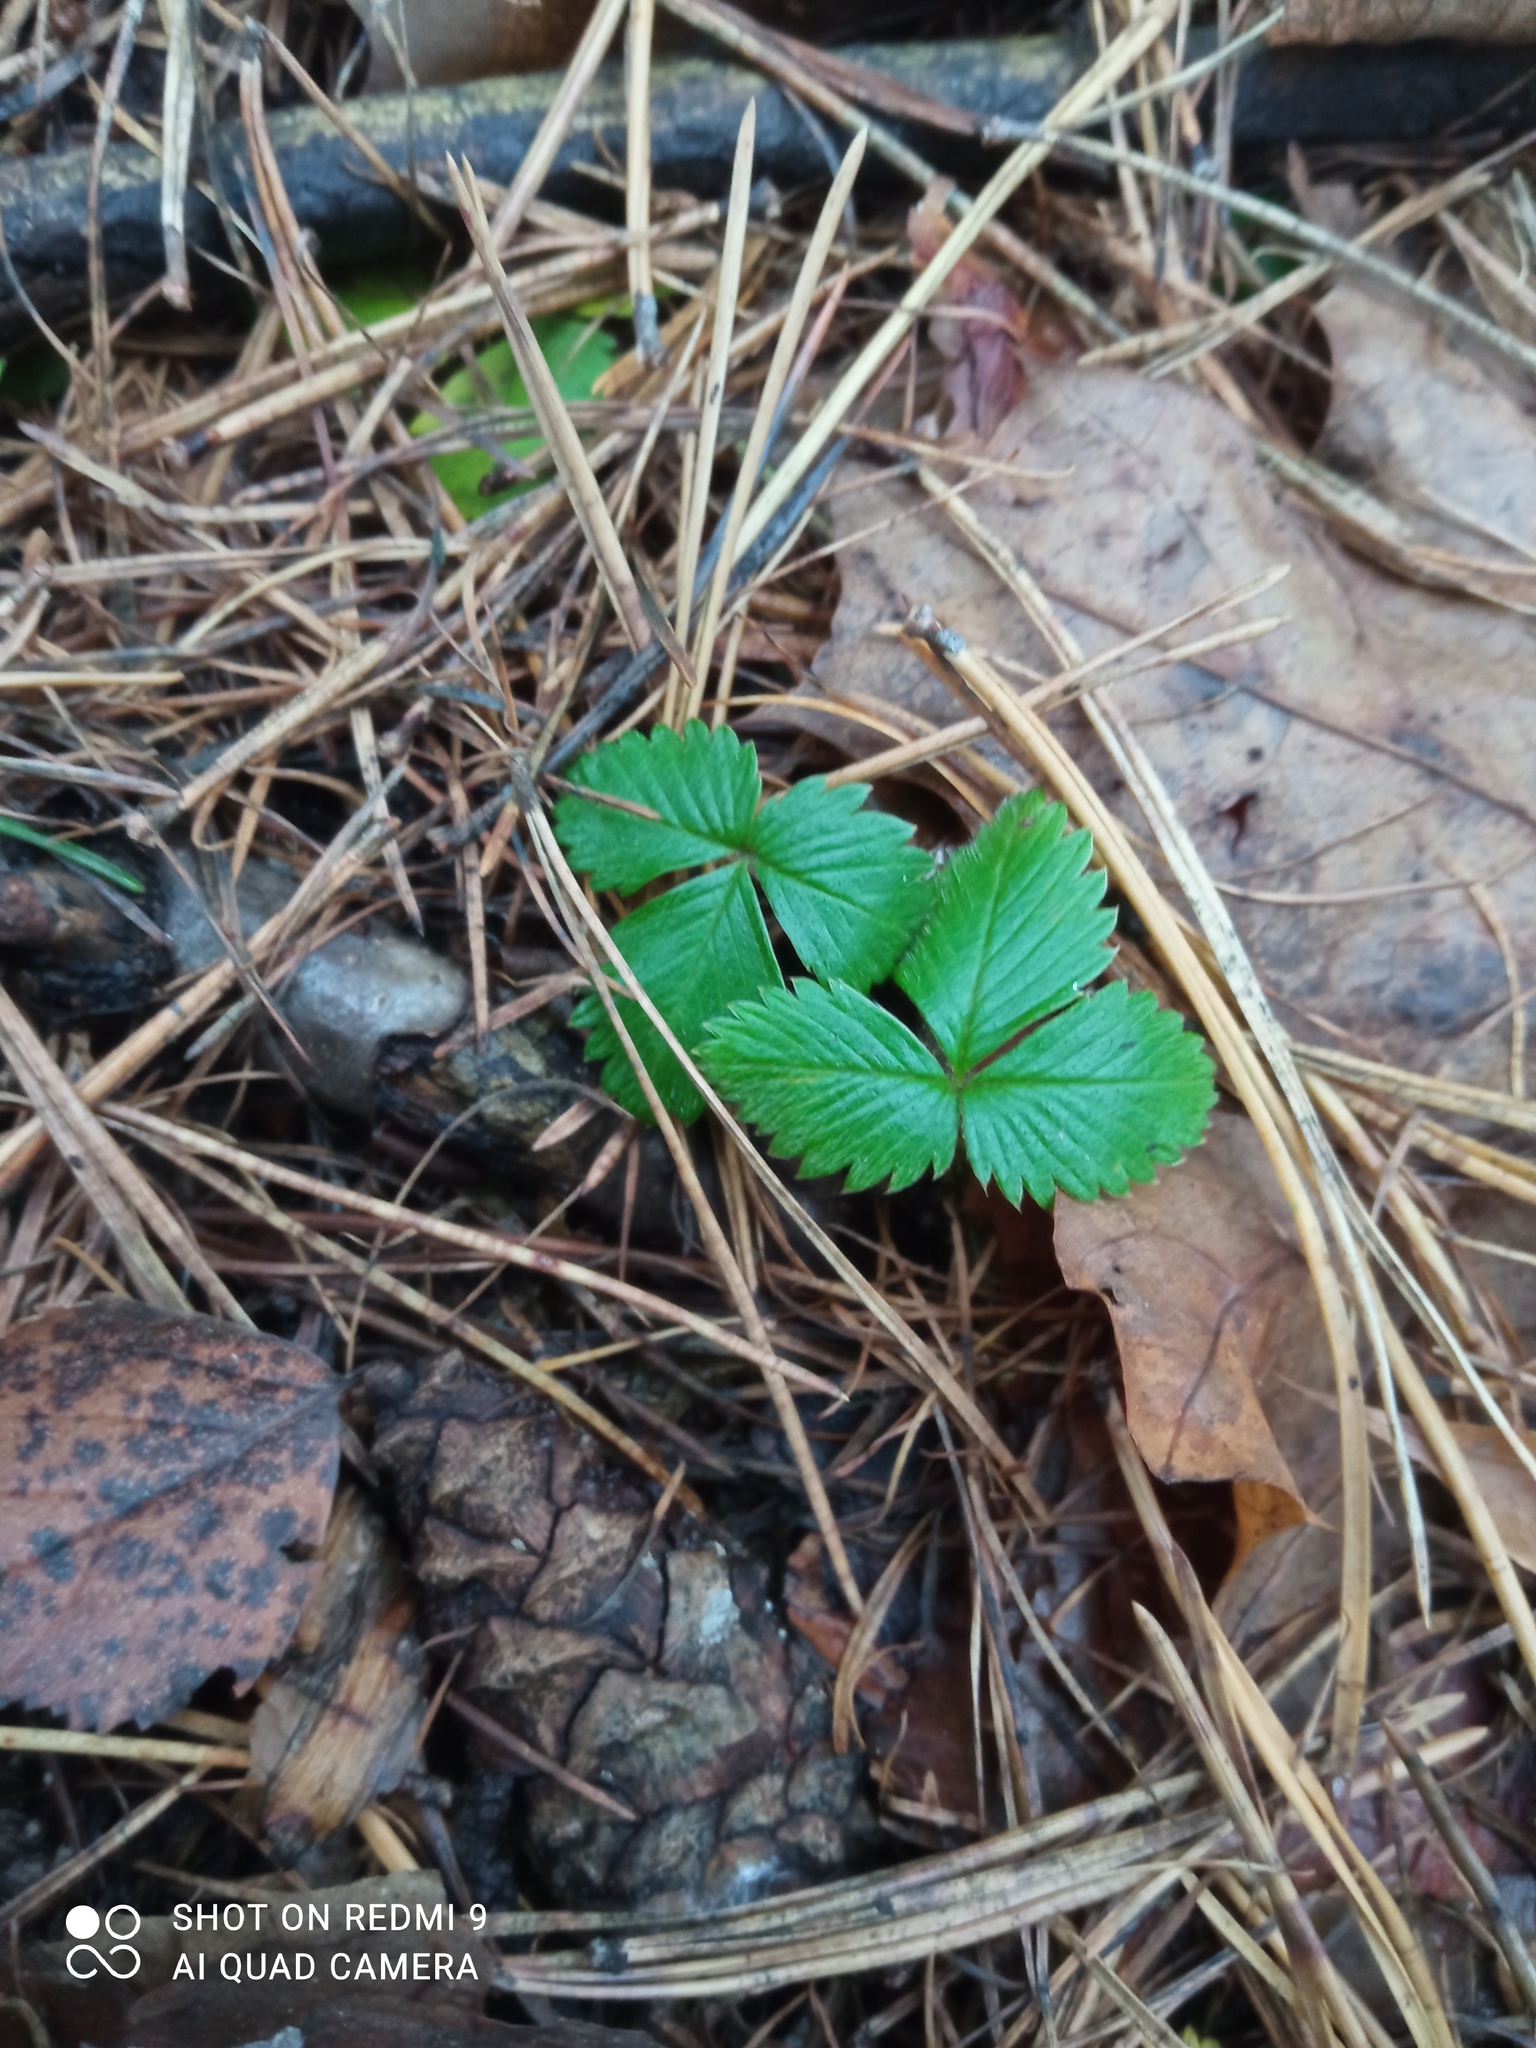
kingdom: Plantae
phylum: Tracheophyta
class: Magnoliopsida
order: Rosales
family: Rosaceae
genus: Fragaria
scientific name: Fragaria vesca
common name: Wild strawberry
